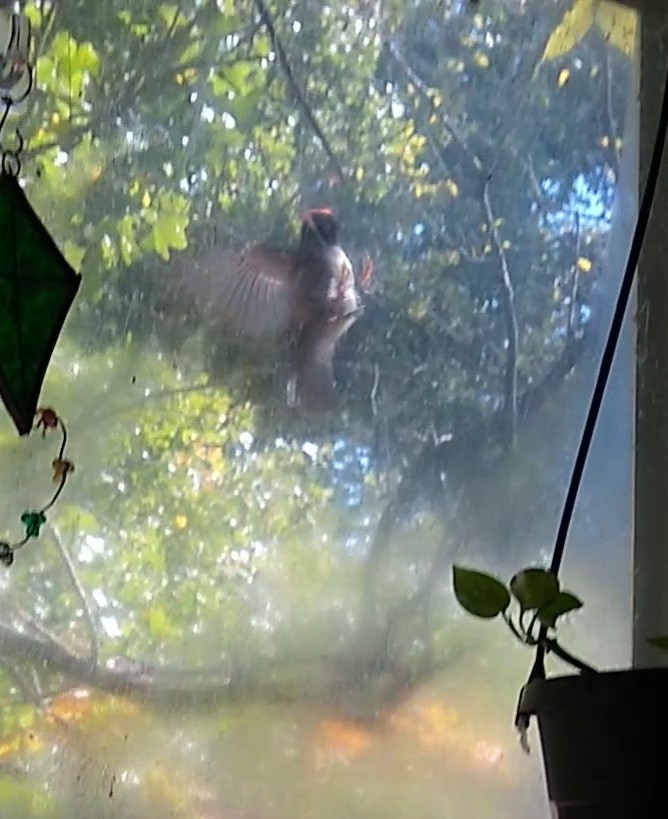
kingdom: Animalia
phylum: Chordata
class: Aves
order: Passeriformes
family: Regulidae
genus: Regulus
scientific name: Regulus calendula
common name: Ruby-crowned kinglet
